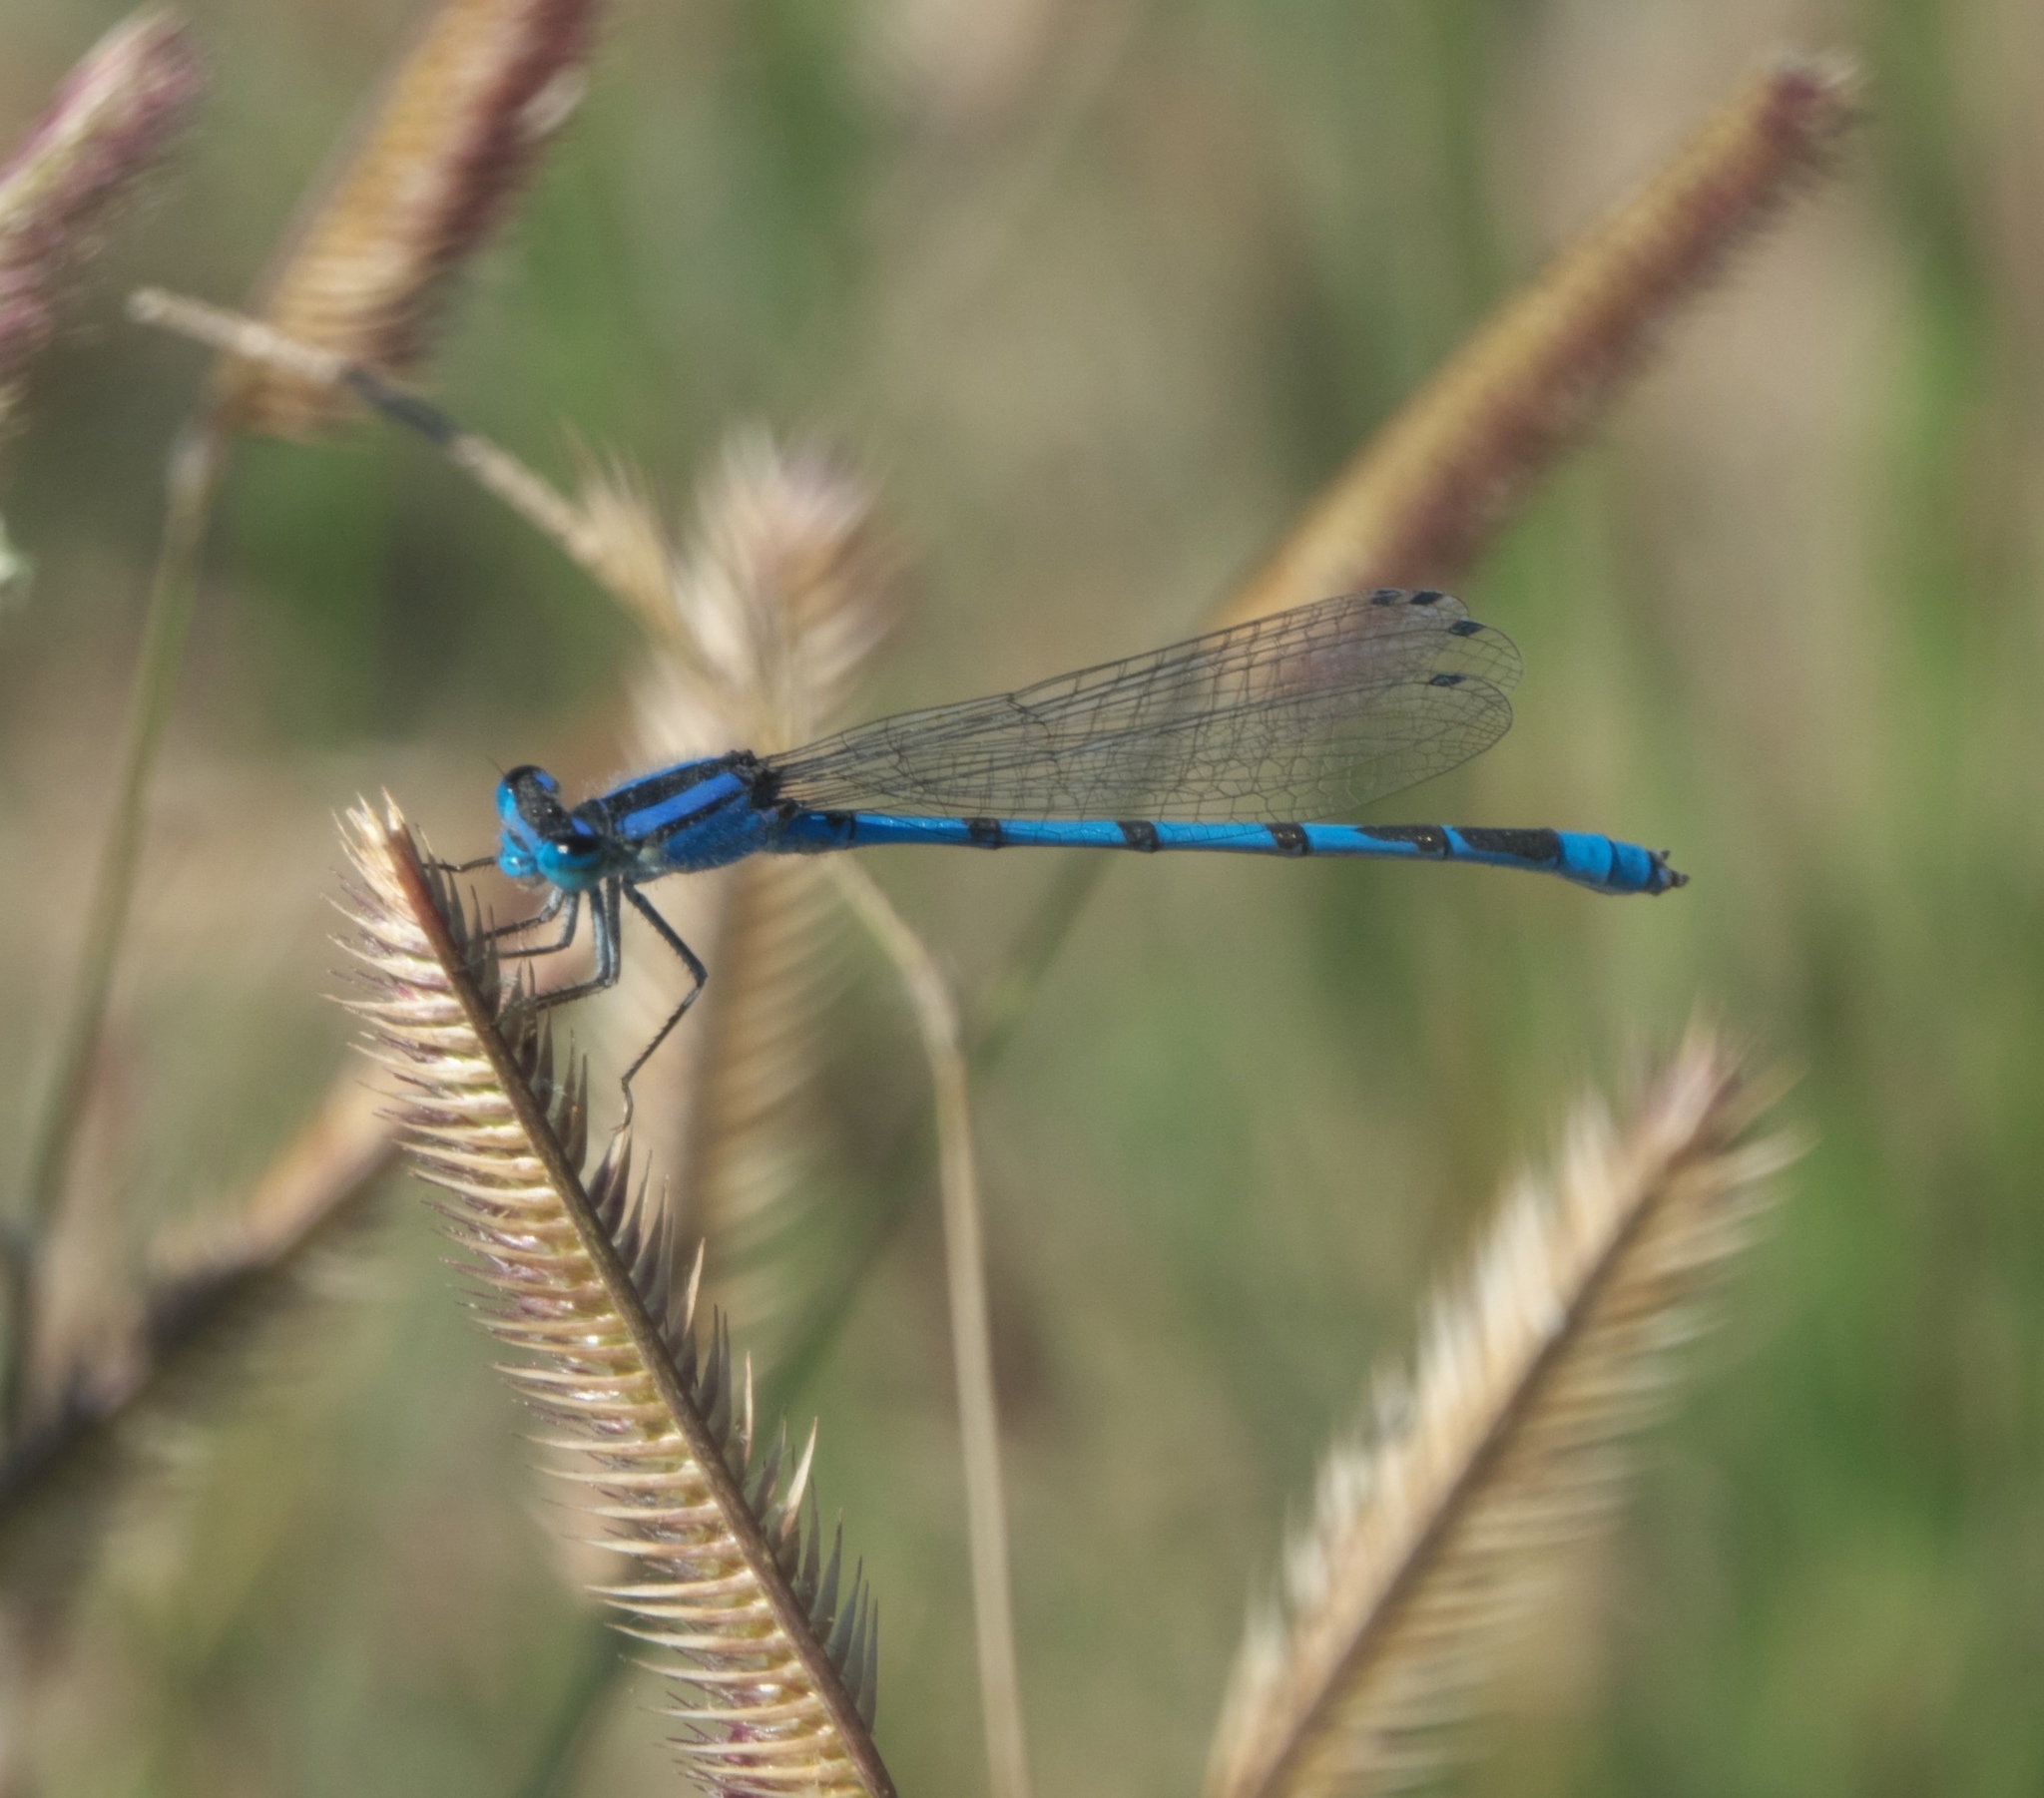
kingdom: Animalia
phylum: Arthropoda
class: Insecta
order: Odonata
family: Coenagrionidae
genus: Enallagma
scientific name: Enallagma civile
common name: Damselfly
